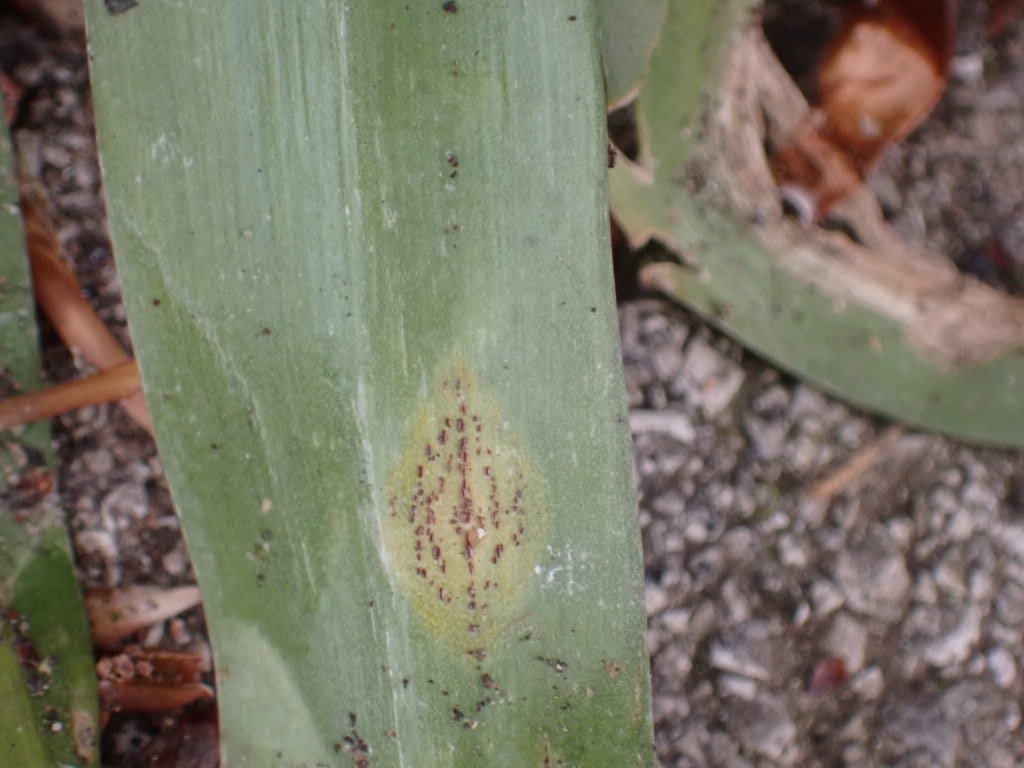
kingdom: Fungi
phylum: Basidiomycota
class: Pucciniomycetes
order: Pucciniales
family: Pucciniaceae
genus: Uromyces
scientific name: Uromyces hyacinthi
